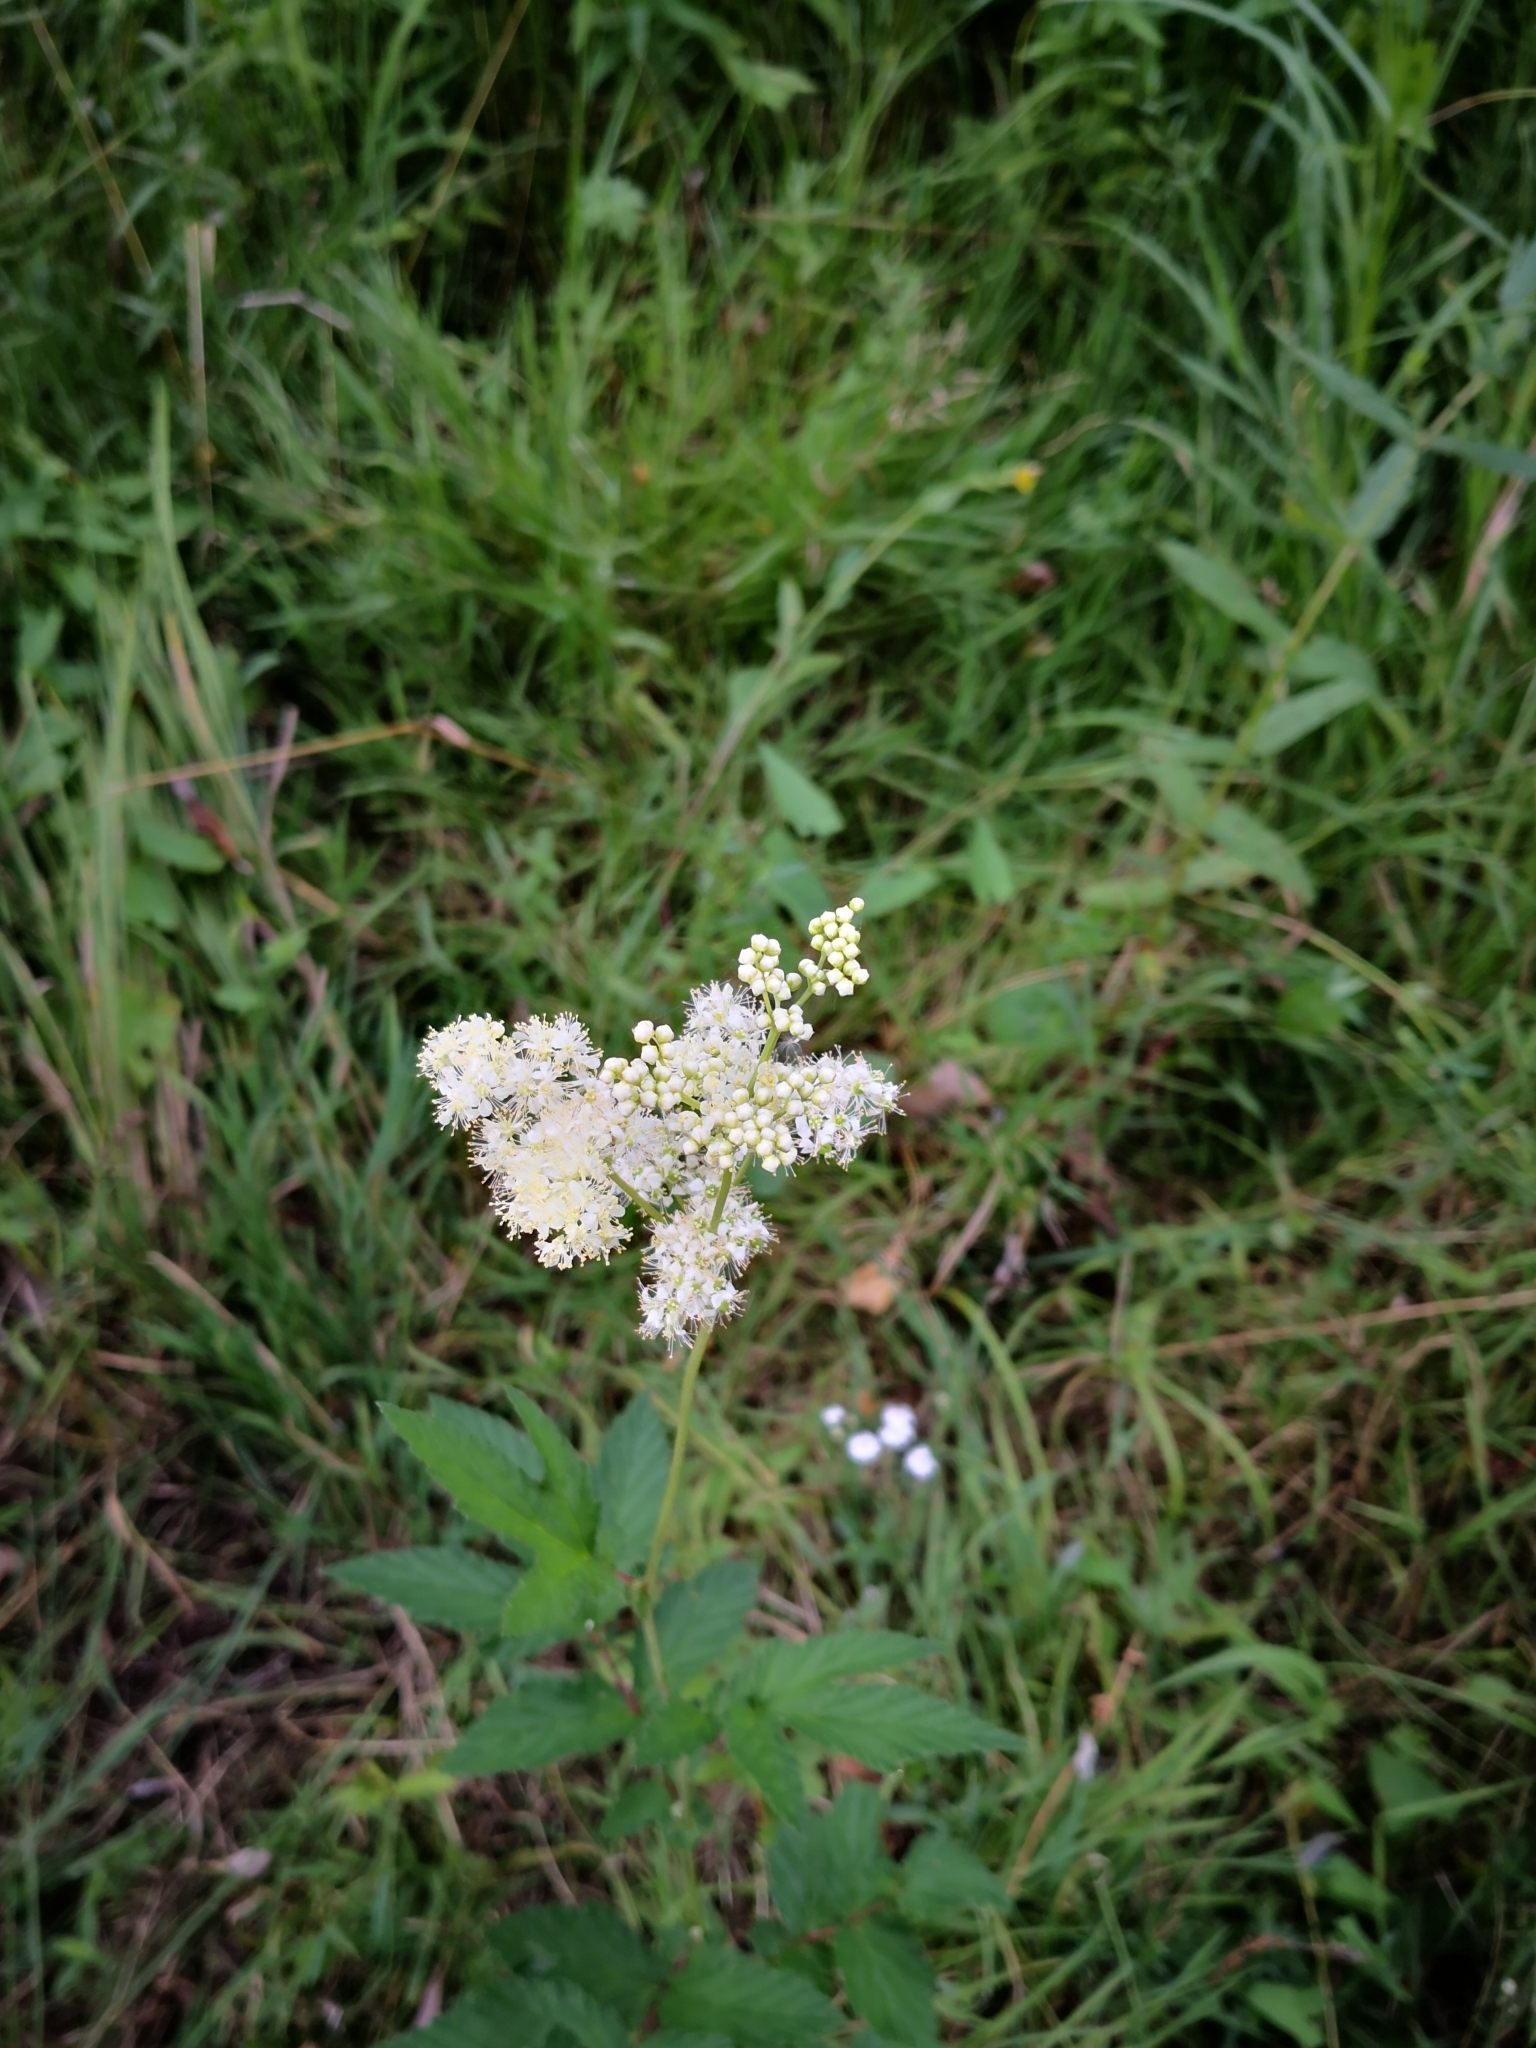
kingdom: Plantae
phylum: Tracheophyta
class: Magnoliopsida
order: Rosales
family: Rosaceae
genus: Filipendula
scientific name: Filipendula ulmaria
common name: Meadowsweet
